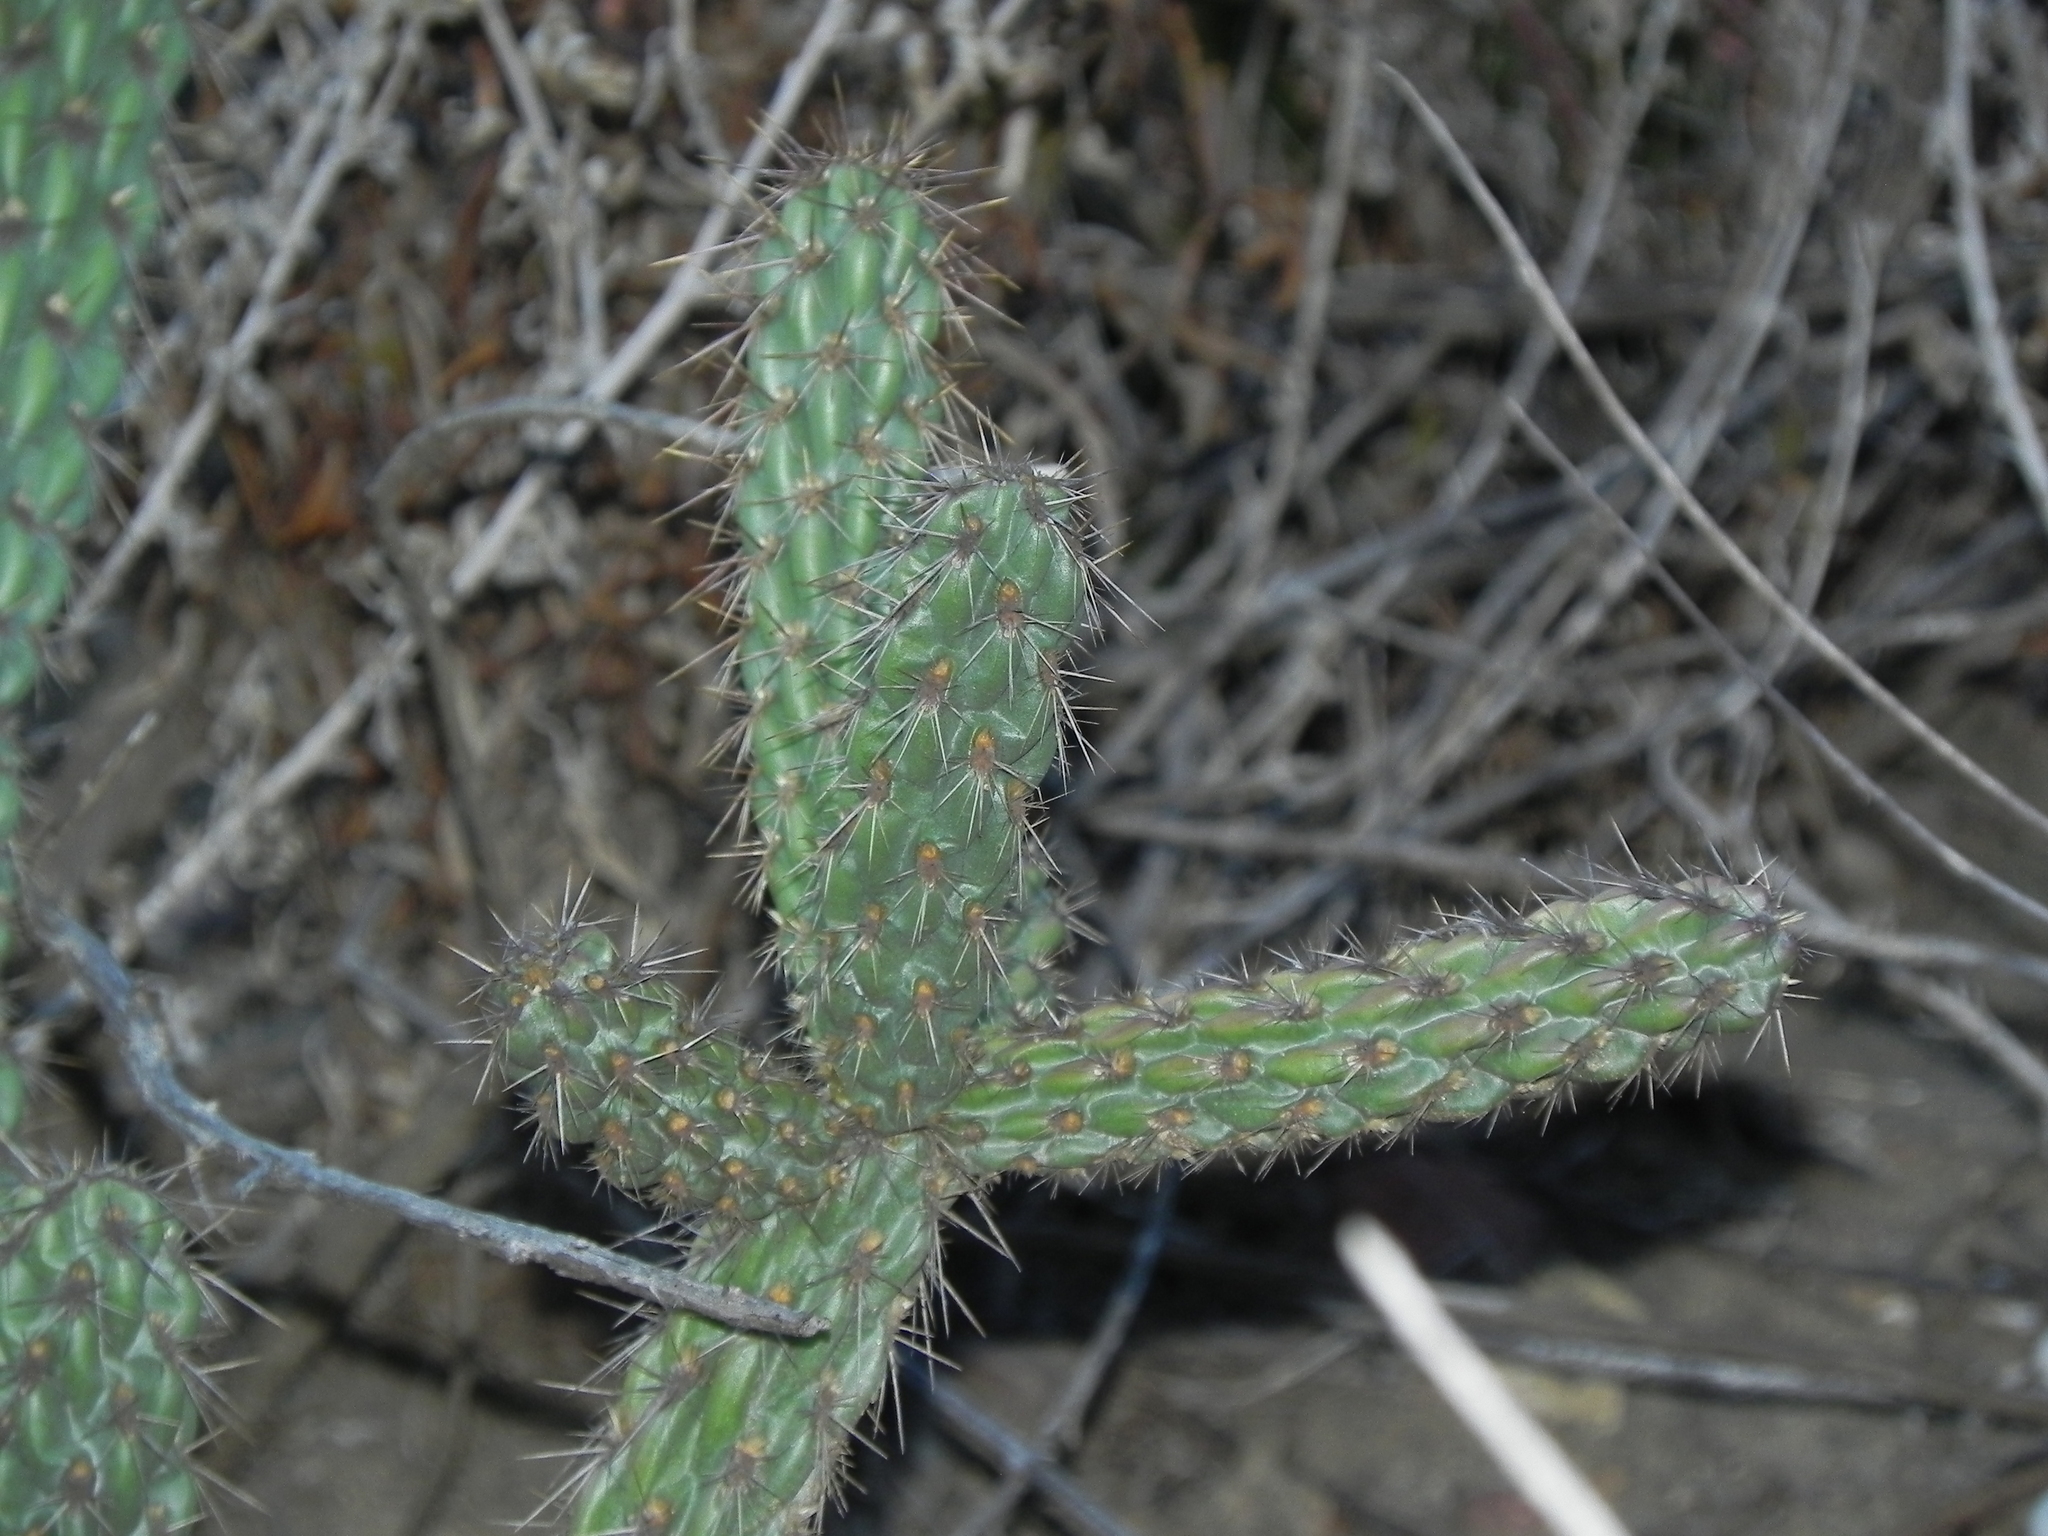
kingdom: Plantae
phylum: Tracheophyta
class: Magnoliopsida
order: Caryophyllales
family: Cactaceae
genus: Cylindropuntia
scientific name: Cylindropuntia californica
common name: Snake cholla
